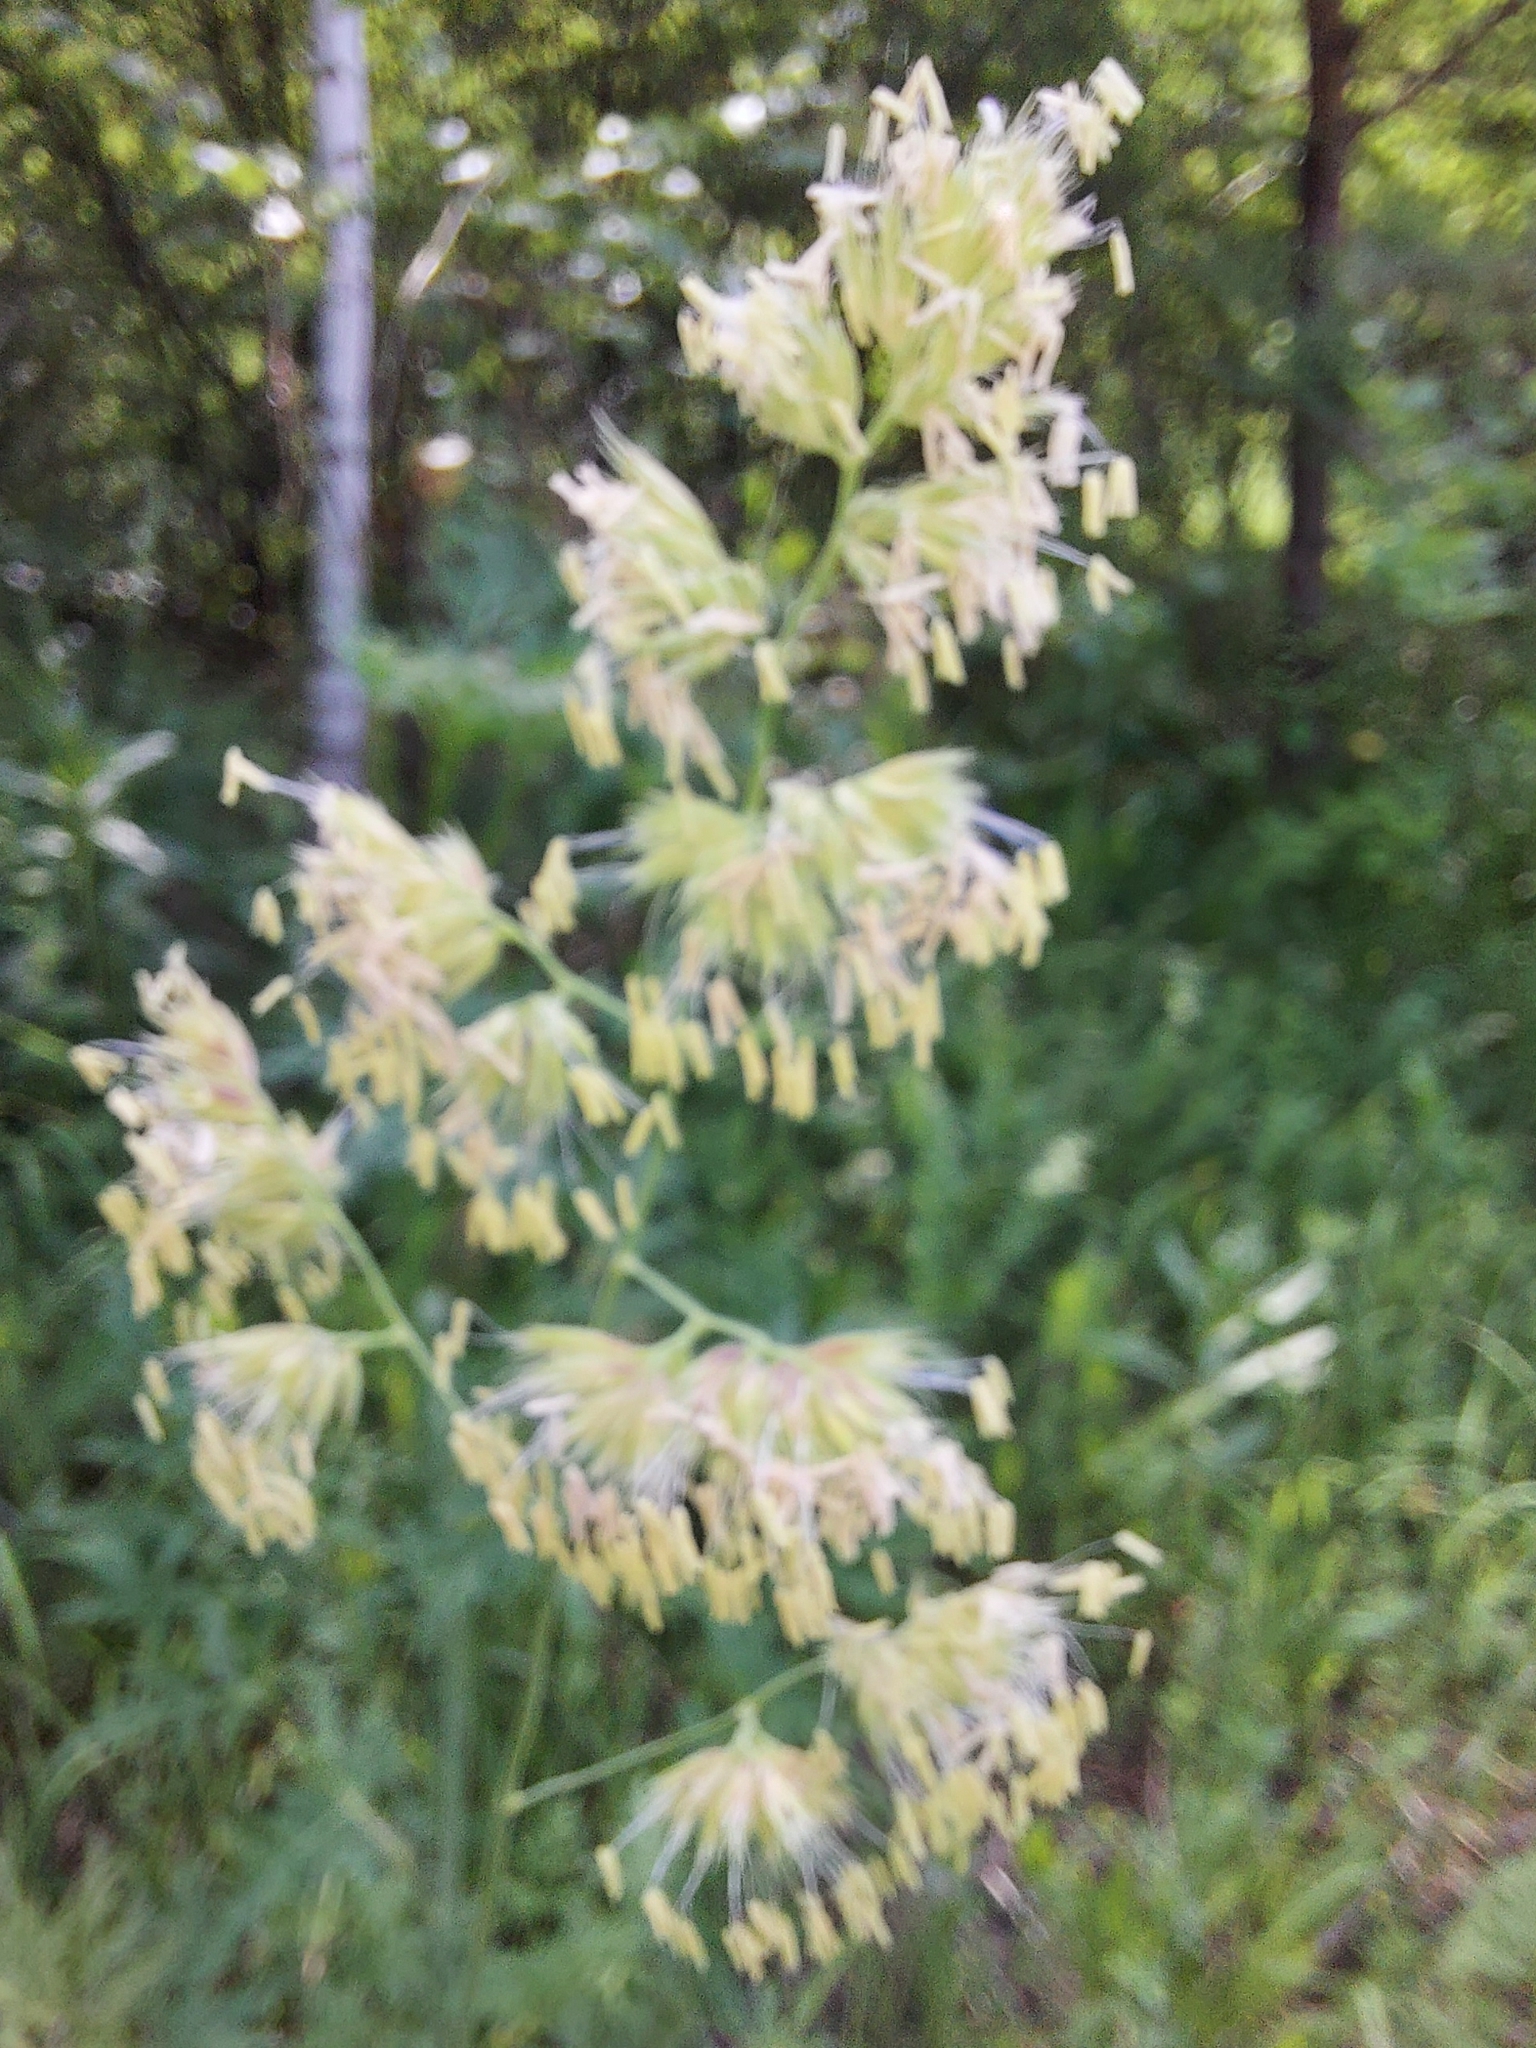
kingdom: Plantae
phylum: Tracheophyta
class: Liliopsida
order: Poales
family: Poaceae
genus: Dactylis
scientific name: Dactylis glomerata
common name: Orchardgrass
